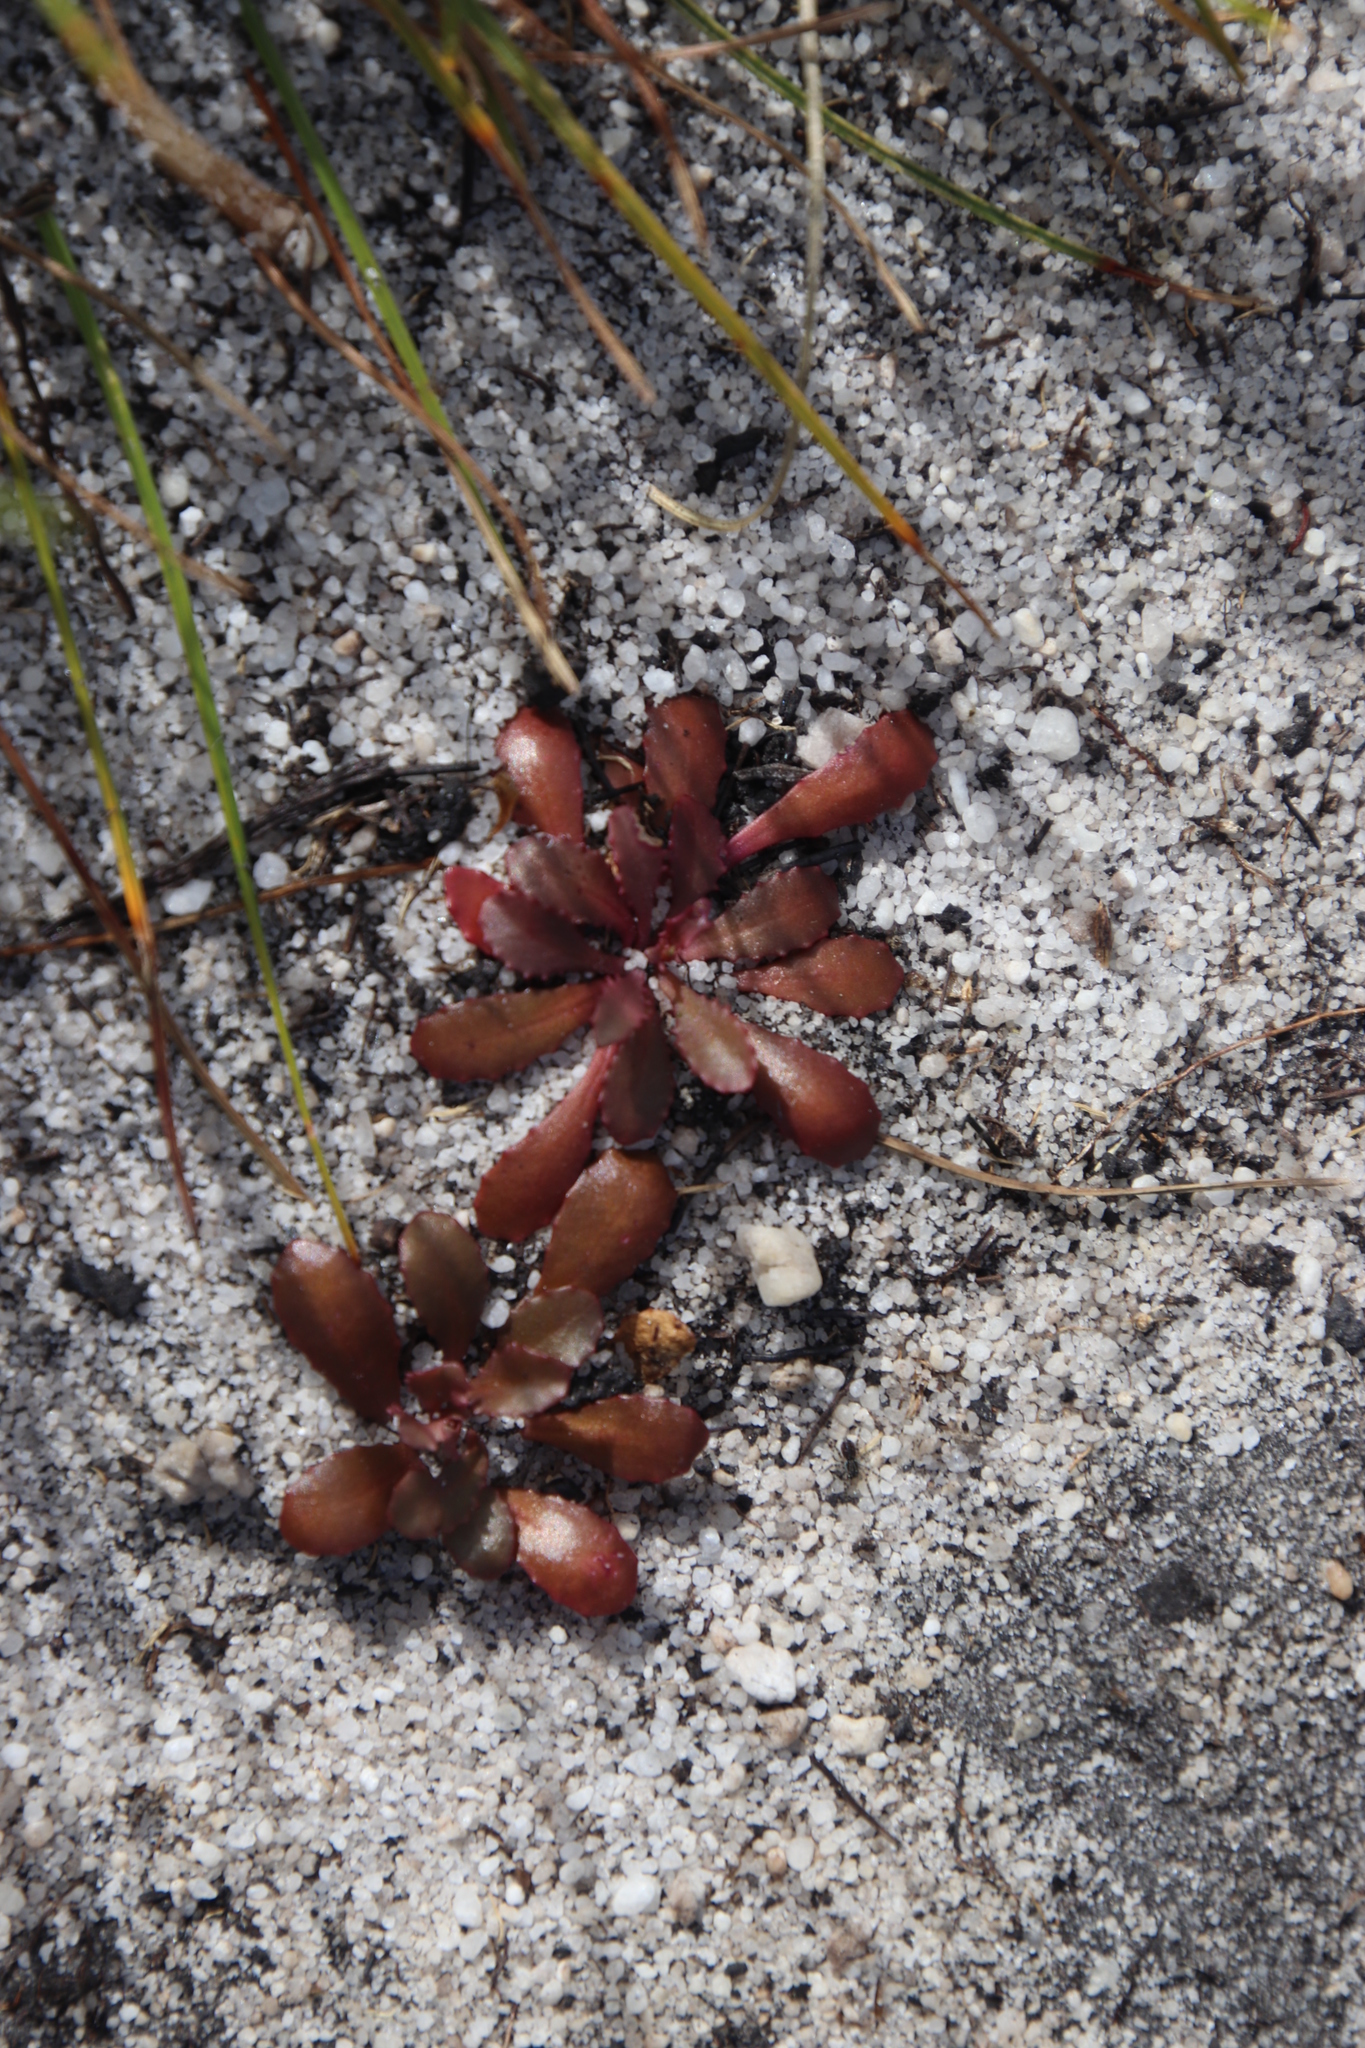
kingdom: Plantae
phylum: Tracheophyta
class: Magnoliopsida
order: Asterales
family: Campanulaceae
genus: Wimmerella
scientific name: Wimmerella secunda
